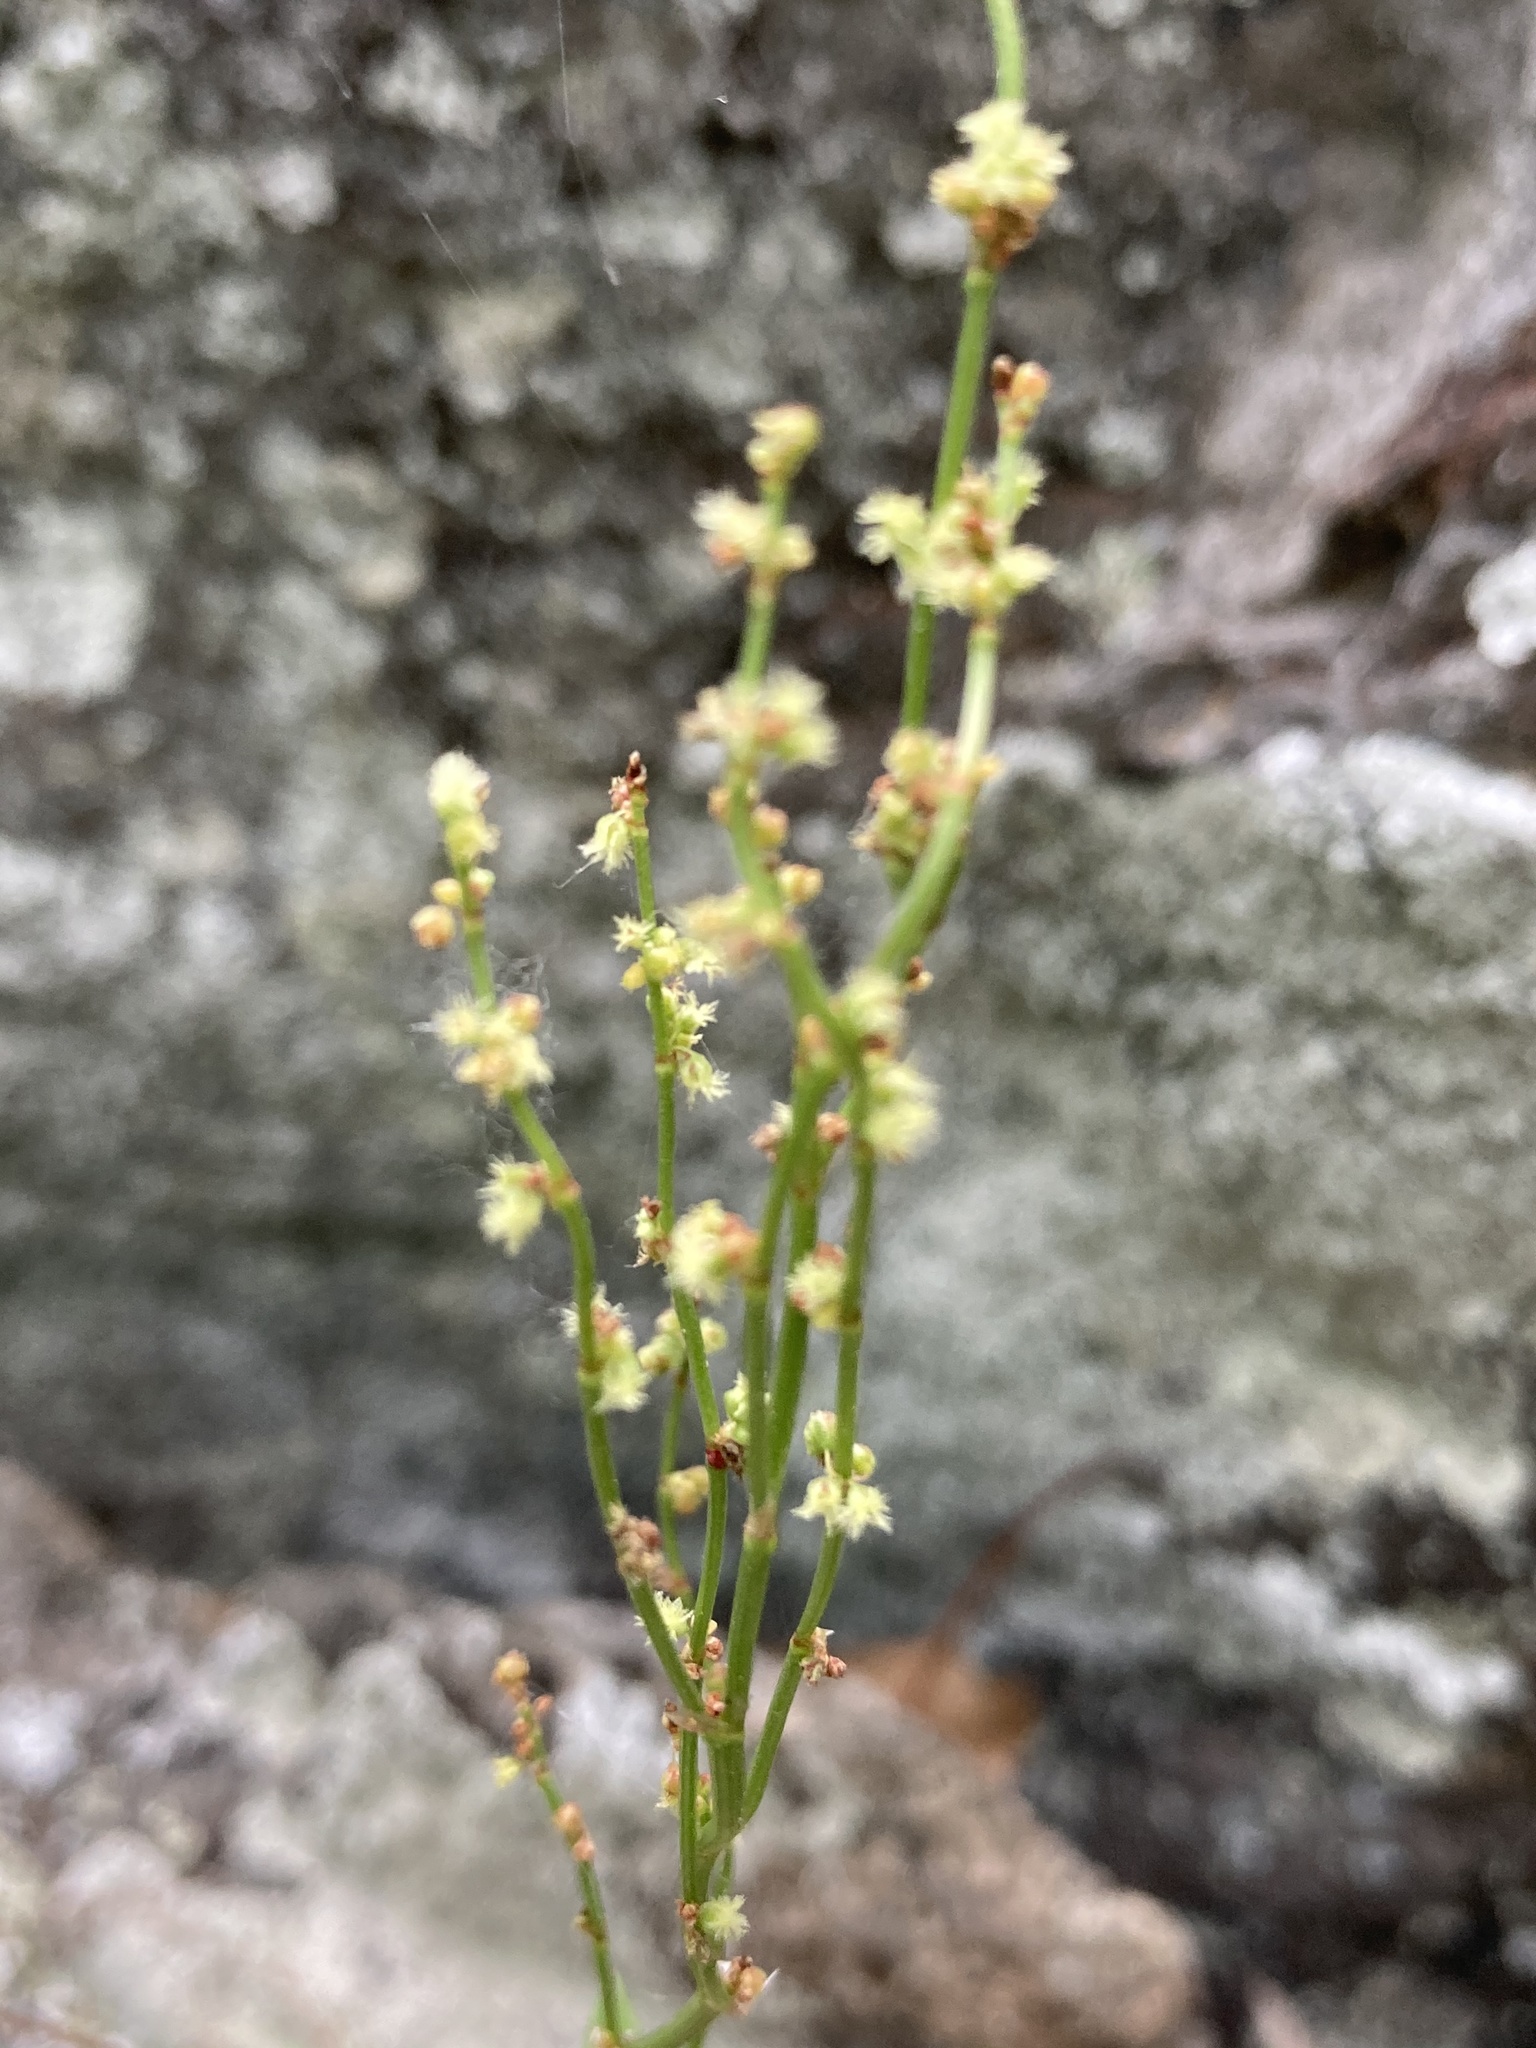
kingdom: Plantae
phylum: Tracheophyta
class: Magnoliopsida
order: Caryophyllales
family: Polygonaceae
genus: Rumex
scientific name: Rumex acetosella
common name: Common sheep sorrel
